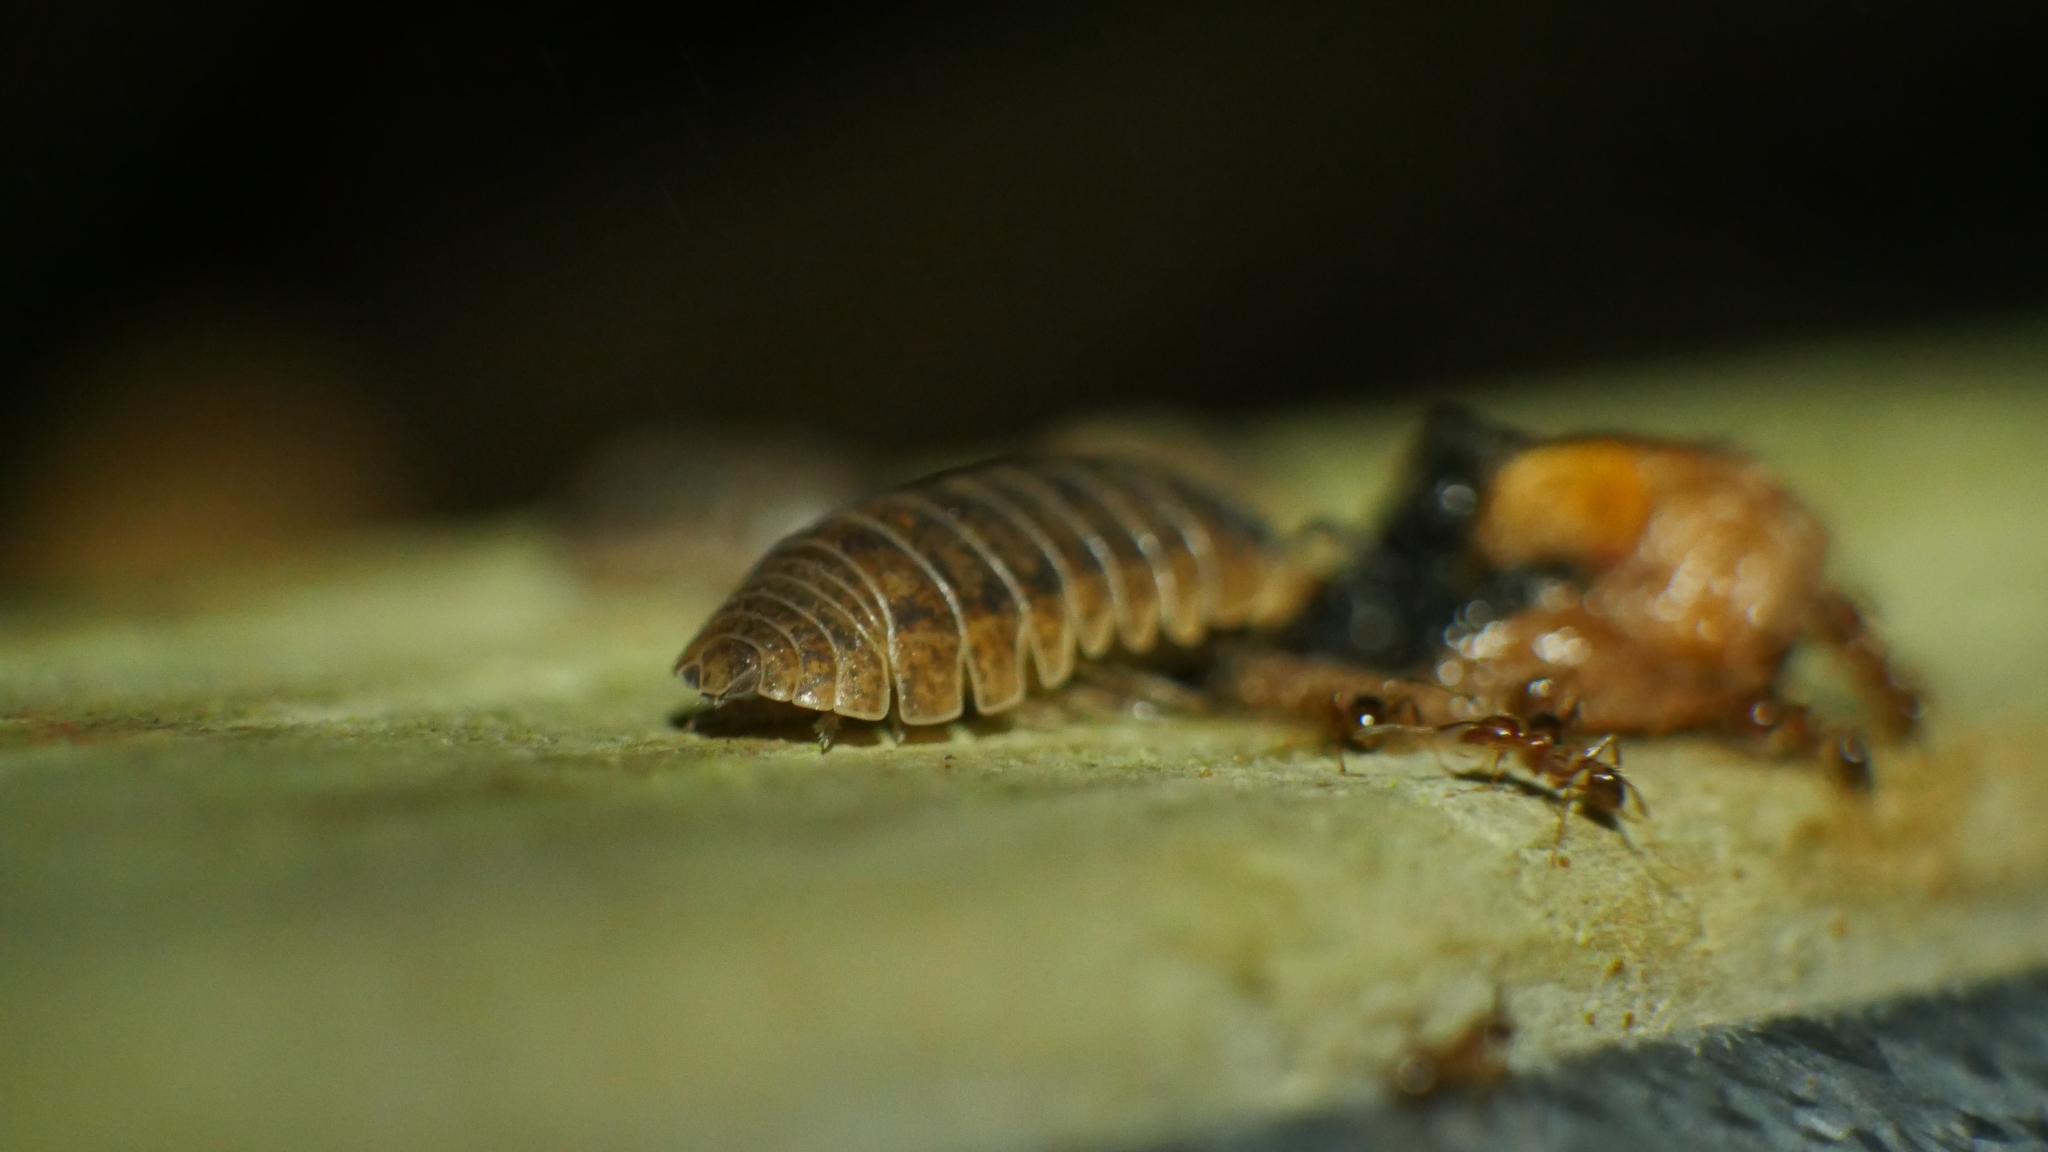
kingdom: Animalia
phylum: Arthropoda
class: Malacostraca
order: Isopoda
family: Armadillidiidae
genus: Armadillidium
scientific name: Armadillidium vulgare
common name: Common pill woodlouse
